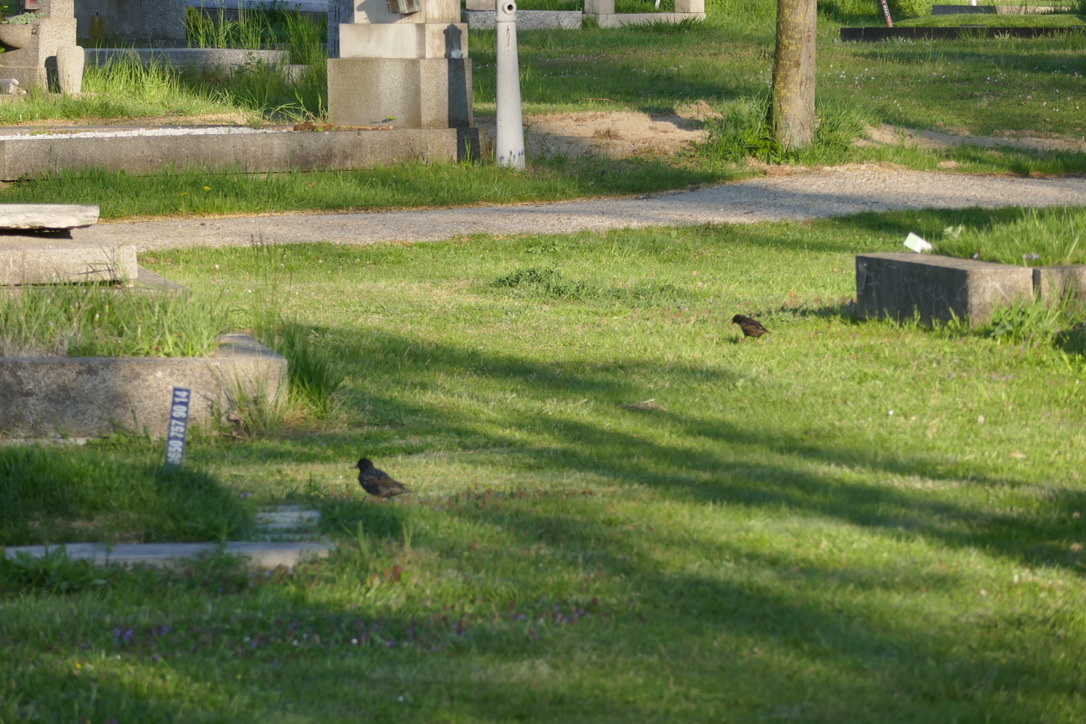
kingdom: Animalia
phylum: Chordata
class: Aves
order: Passeriformes
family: Sturnidae
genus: Sturnus
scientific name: Sturnus vulgaris
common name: Common starling
